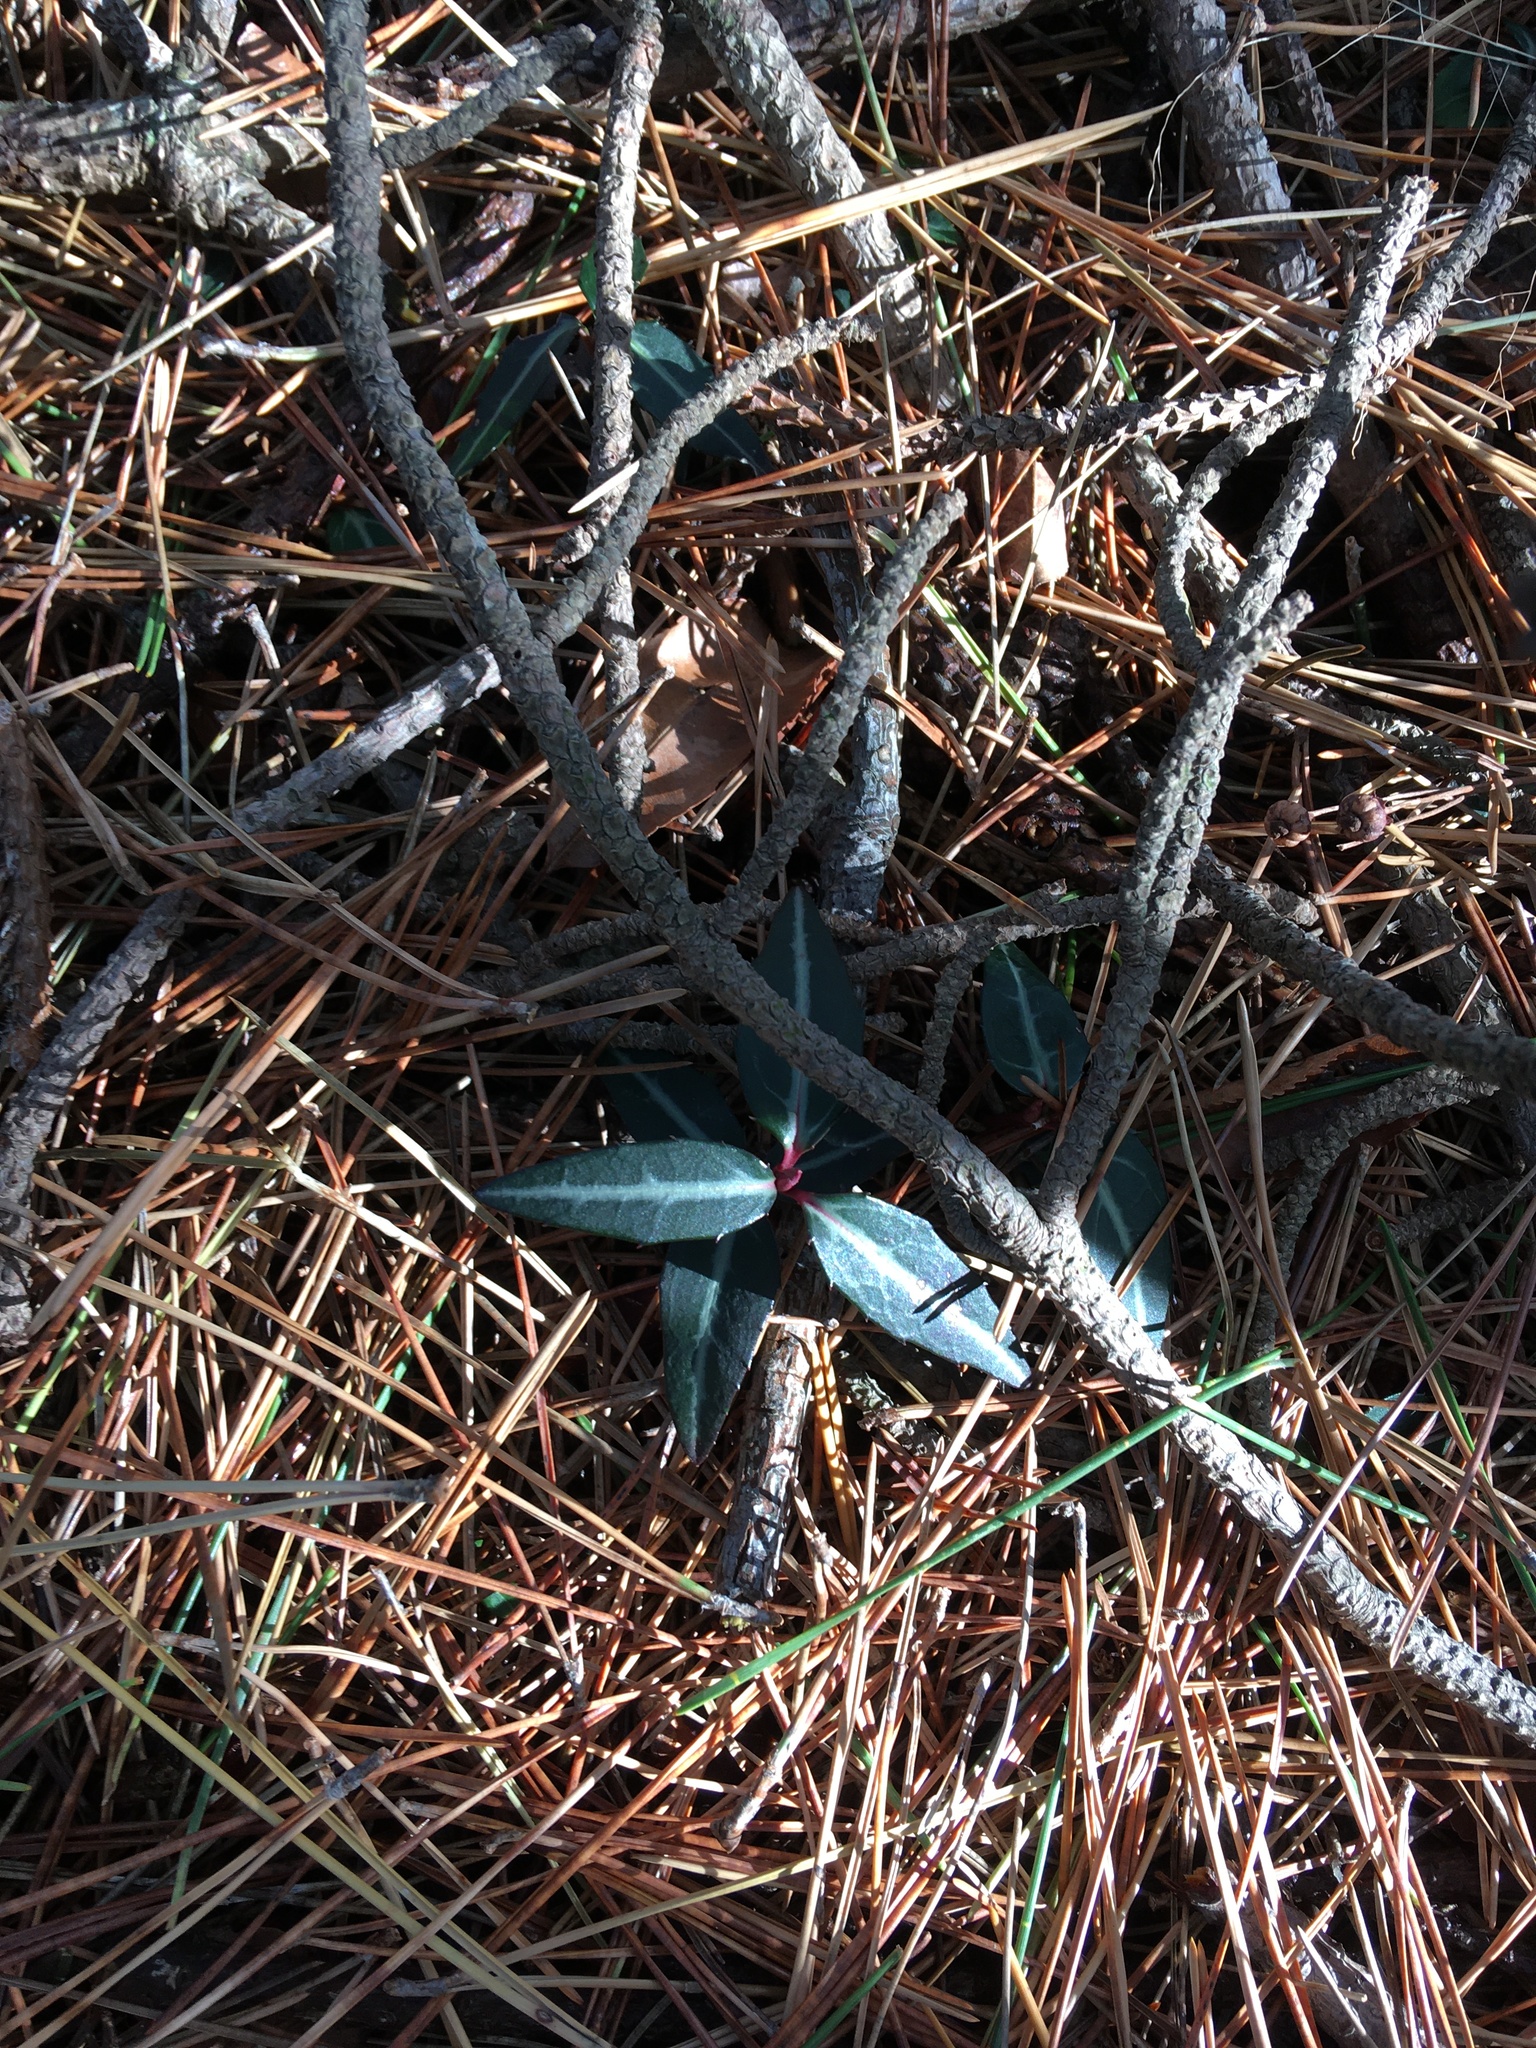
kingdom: Plantae
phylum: Tracheophyta
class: Magnoliopsida
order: Ericales
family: Ericaceae
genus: Chimaphila
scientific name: Chimaphila maculata
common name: Spotted pipsissewa
